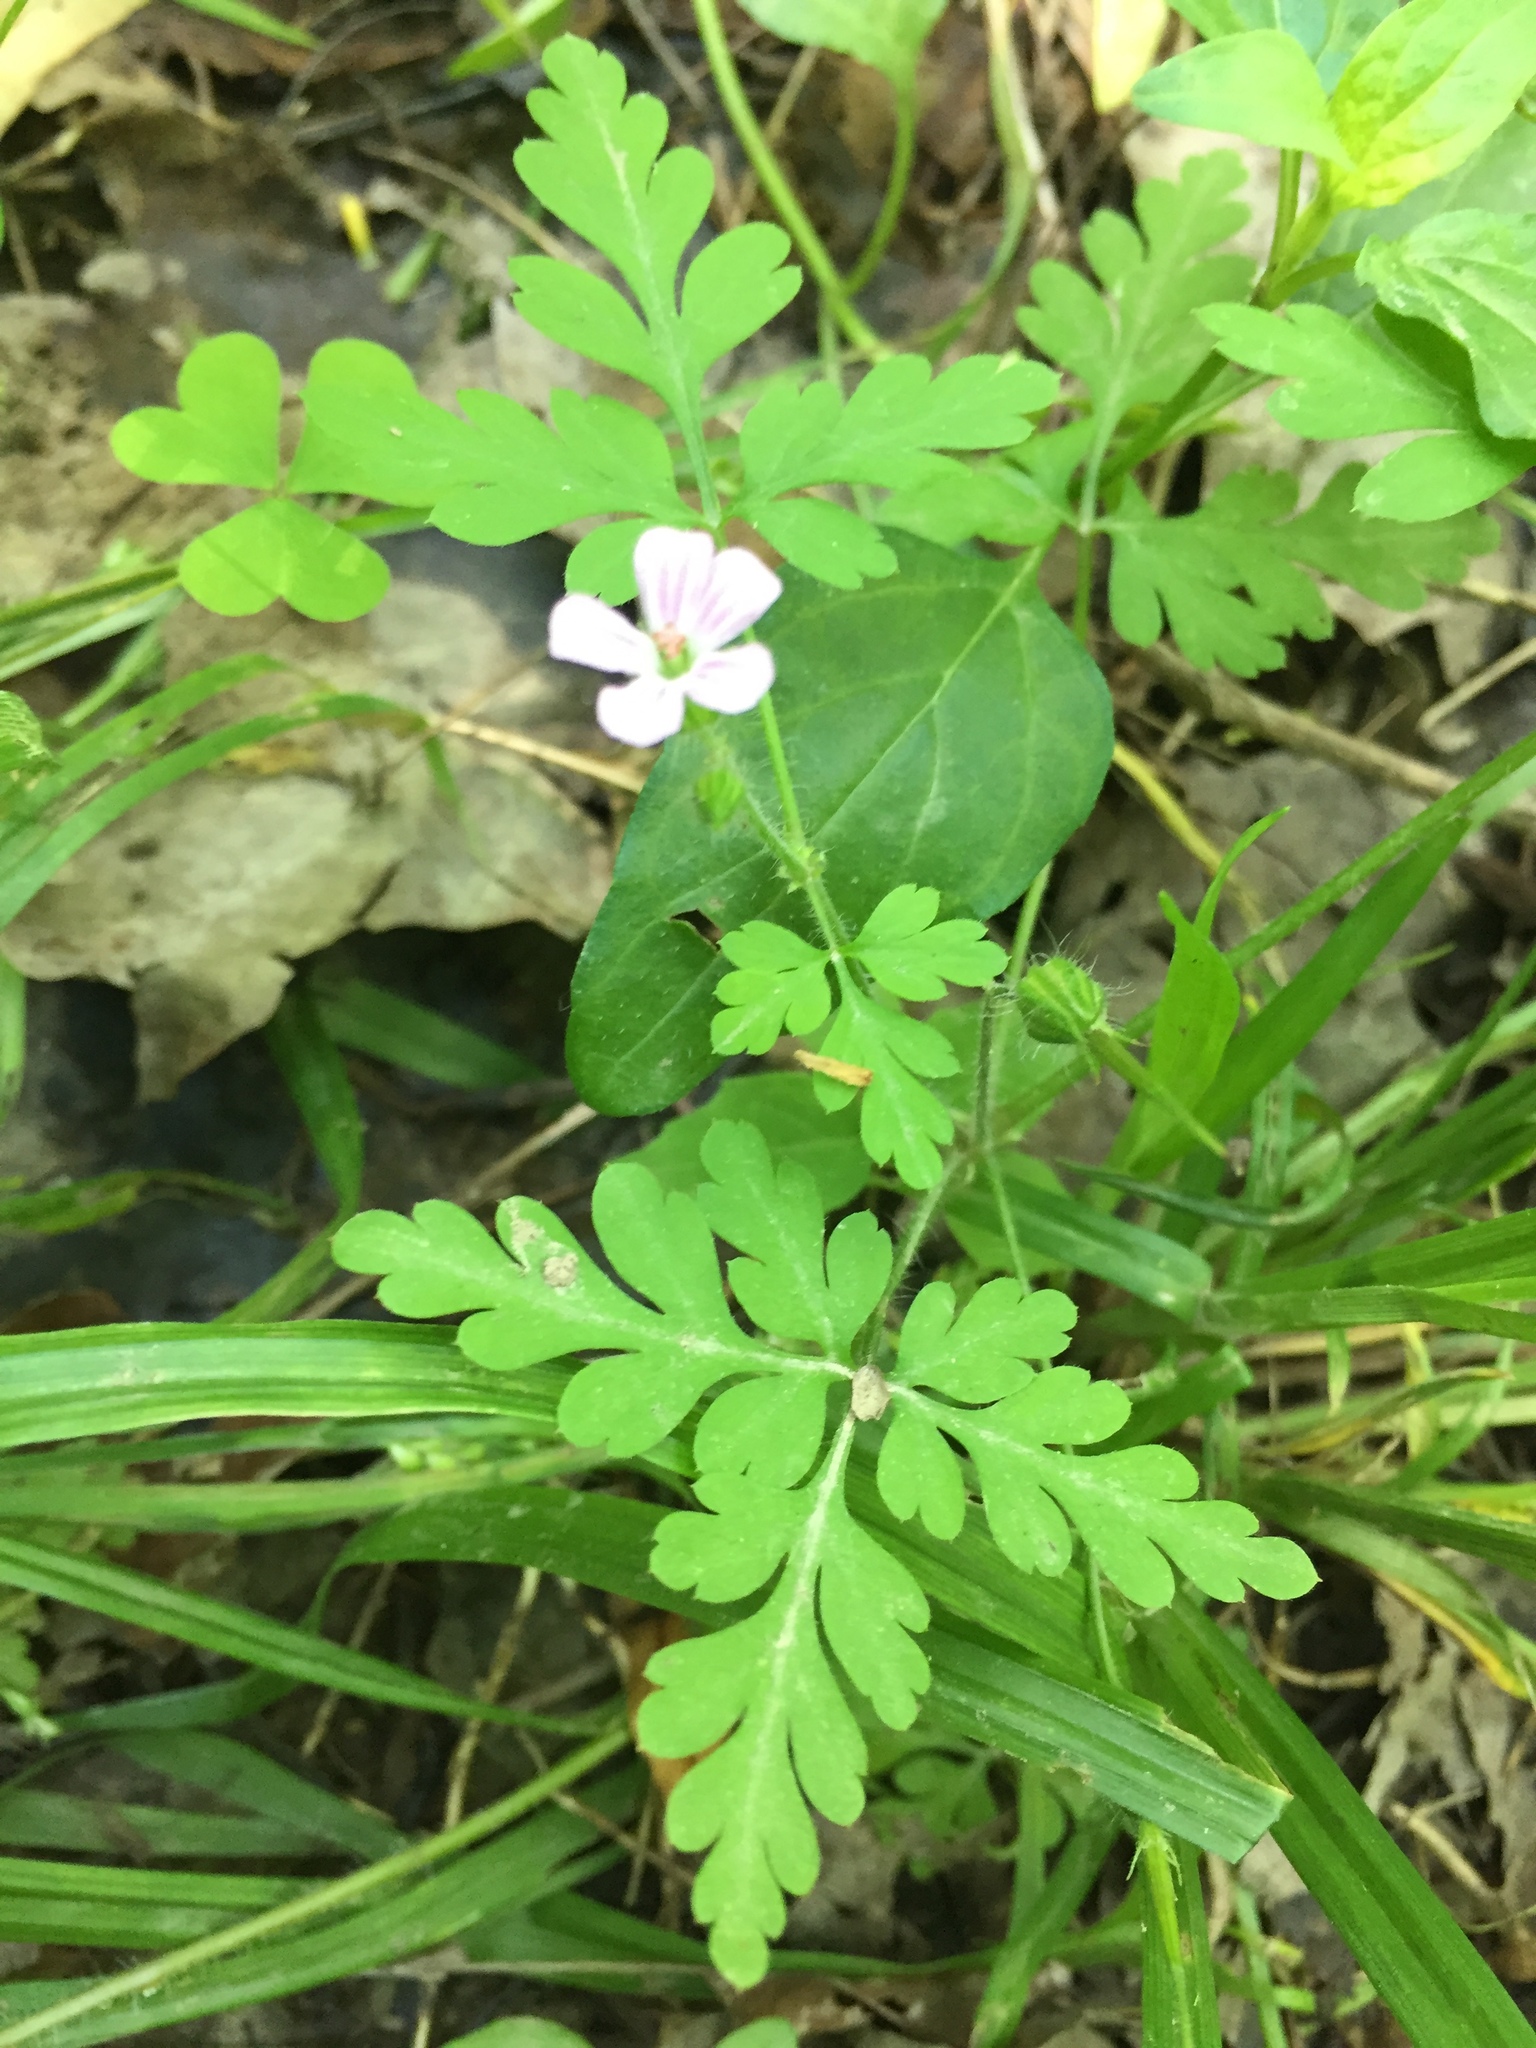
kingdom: Plantae
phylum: Tracheophyta
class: Magnoliopsida
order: Geraniales
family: Geraniaceae
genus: Geranium
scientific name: Geranium robertianum
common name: Herb-robert
